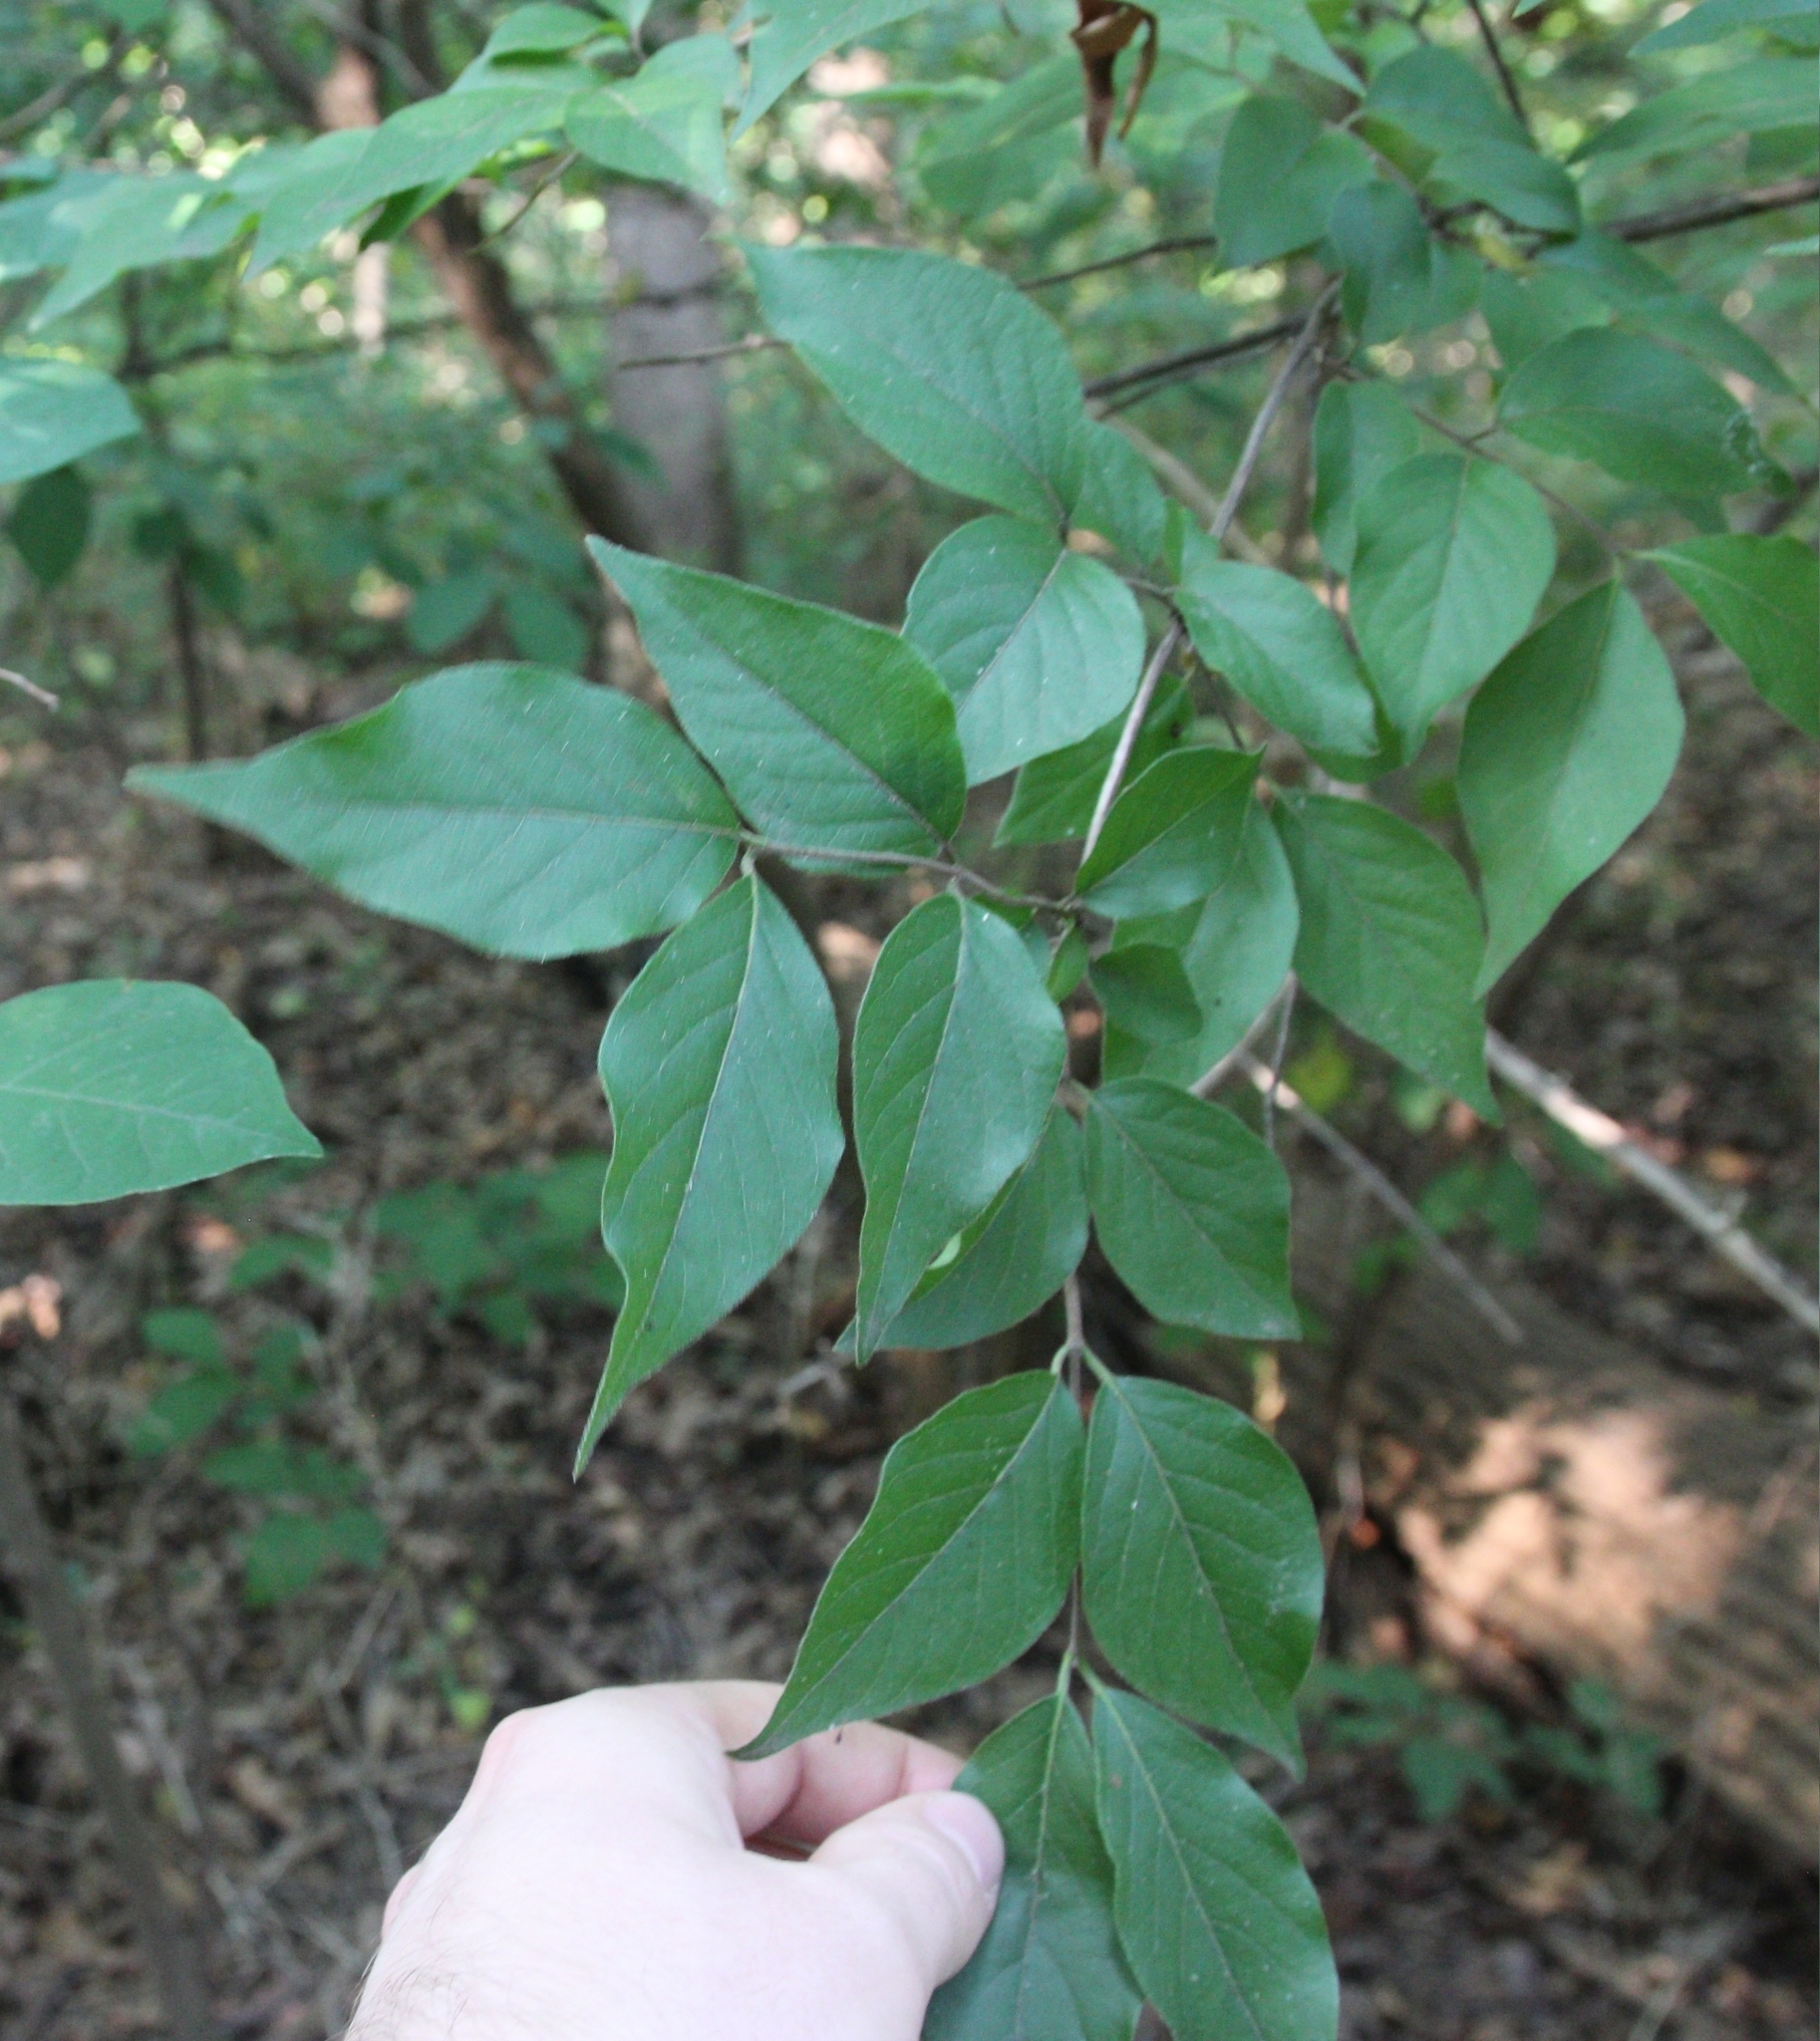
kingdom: Plantae
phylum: Tracheophyta
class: Magnoliopsida
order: Dipsacales
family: Caprifoliaceae
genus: Lonicera
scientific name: Lonicera maackii
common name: Amur honeysuckle
